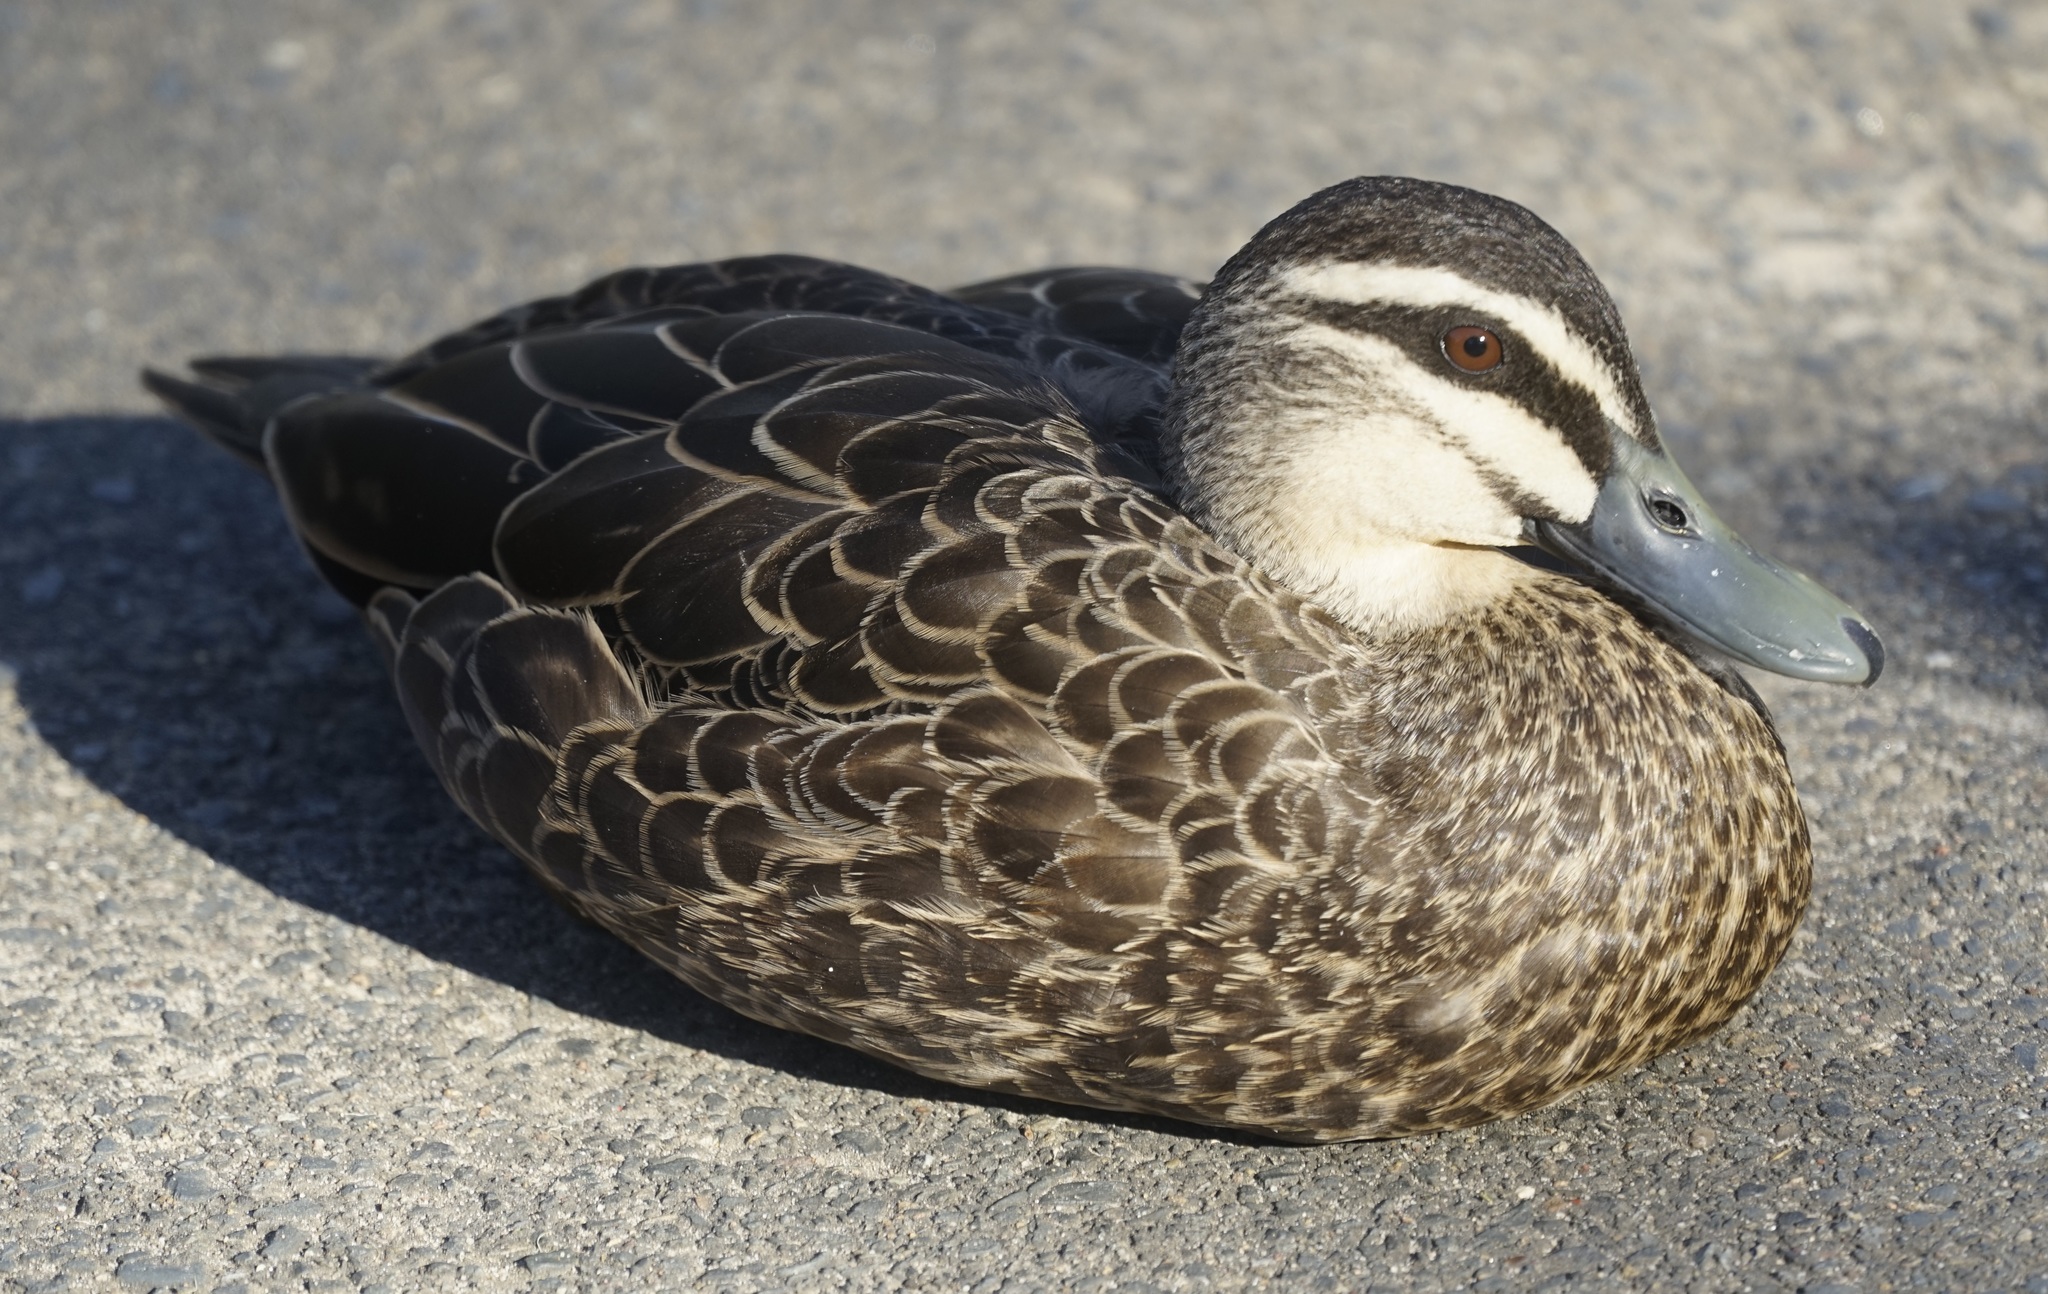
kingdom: Animalia
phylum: Chordata
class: Aves
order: Anseriformes
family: Anatidae
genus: Anas
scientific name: Anas superciliosa
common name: Pacific black duck
